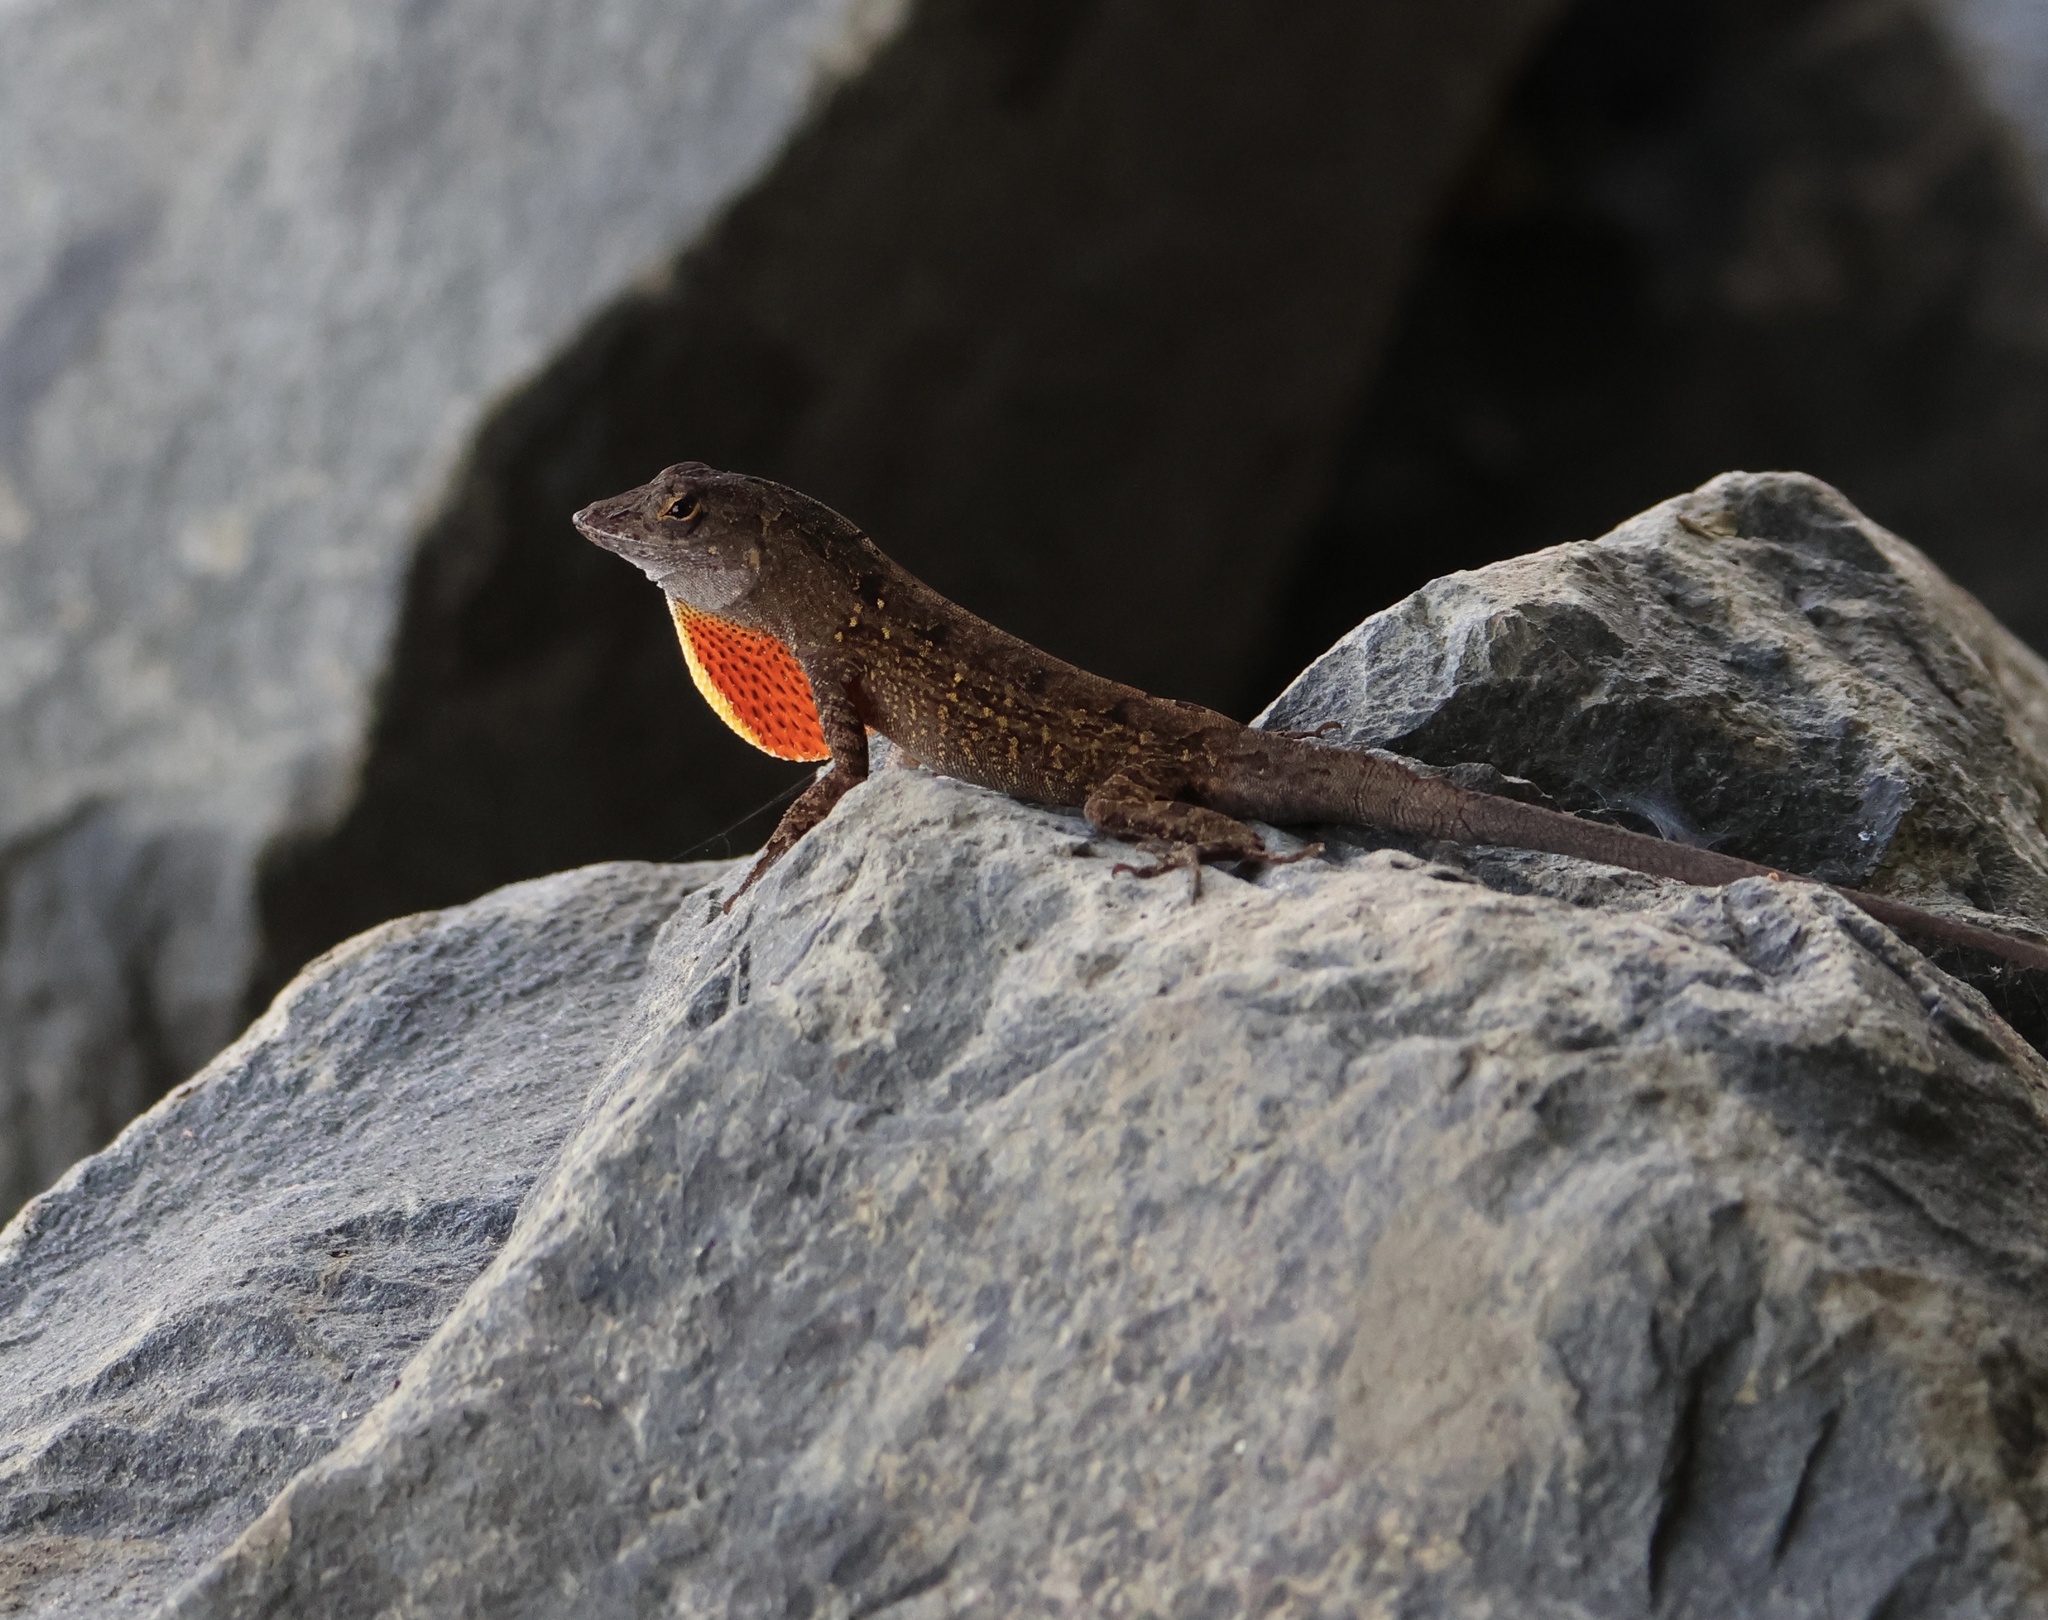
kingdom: Animalia
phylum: Chordata
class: Squamata
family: Dactyloidae
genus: Anolis
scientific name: Anolis sagrei
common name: Brown anole
